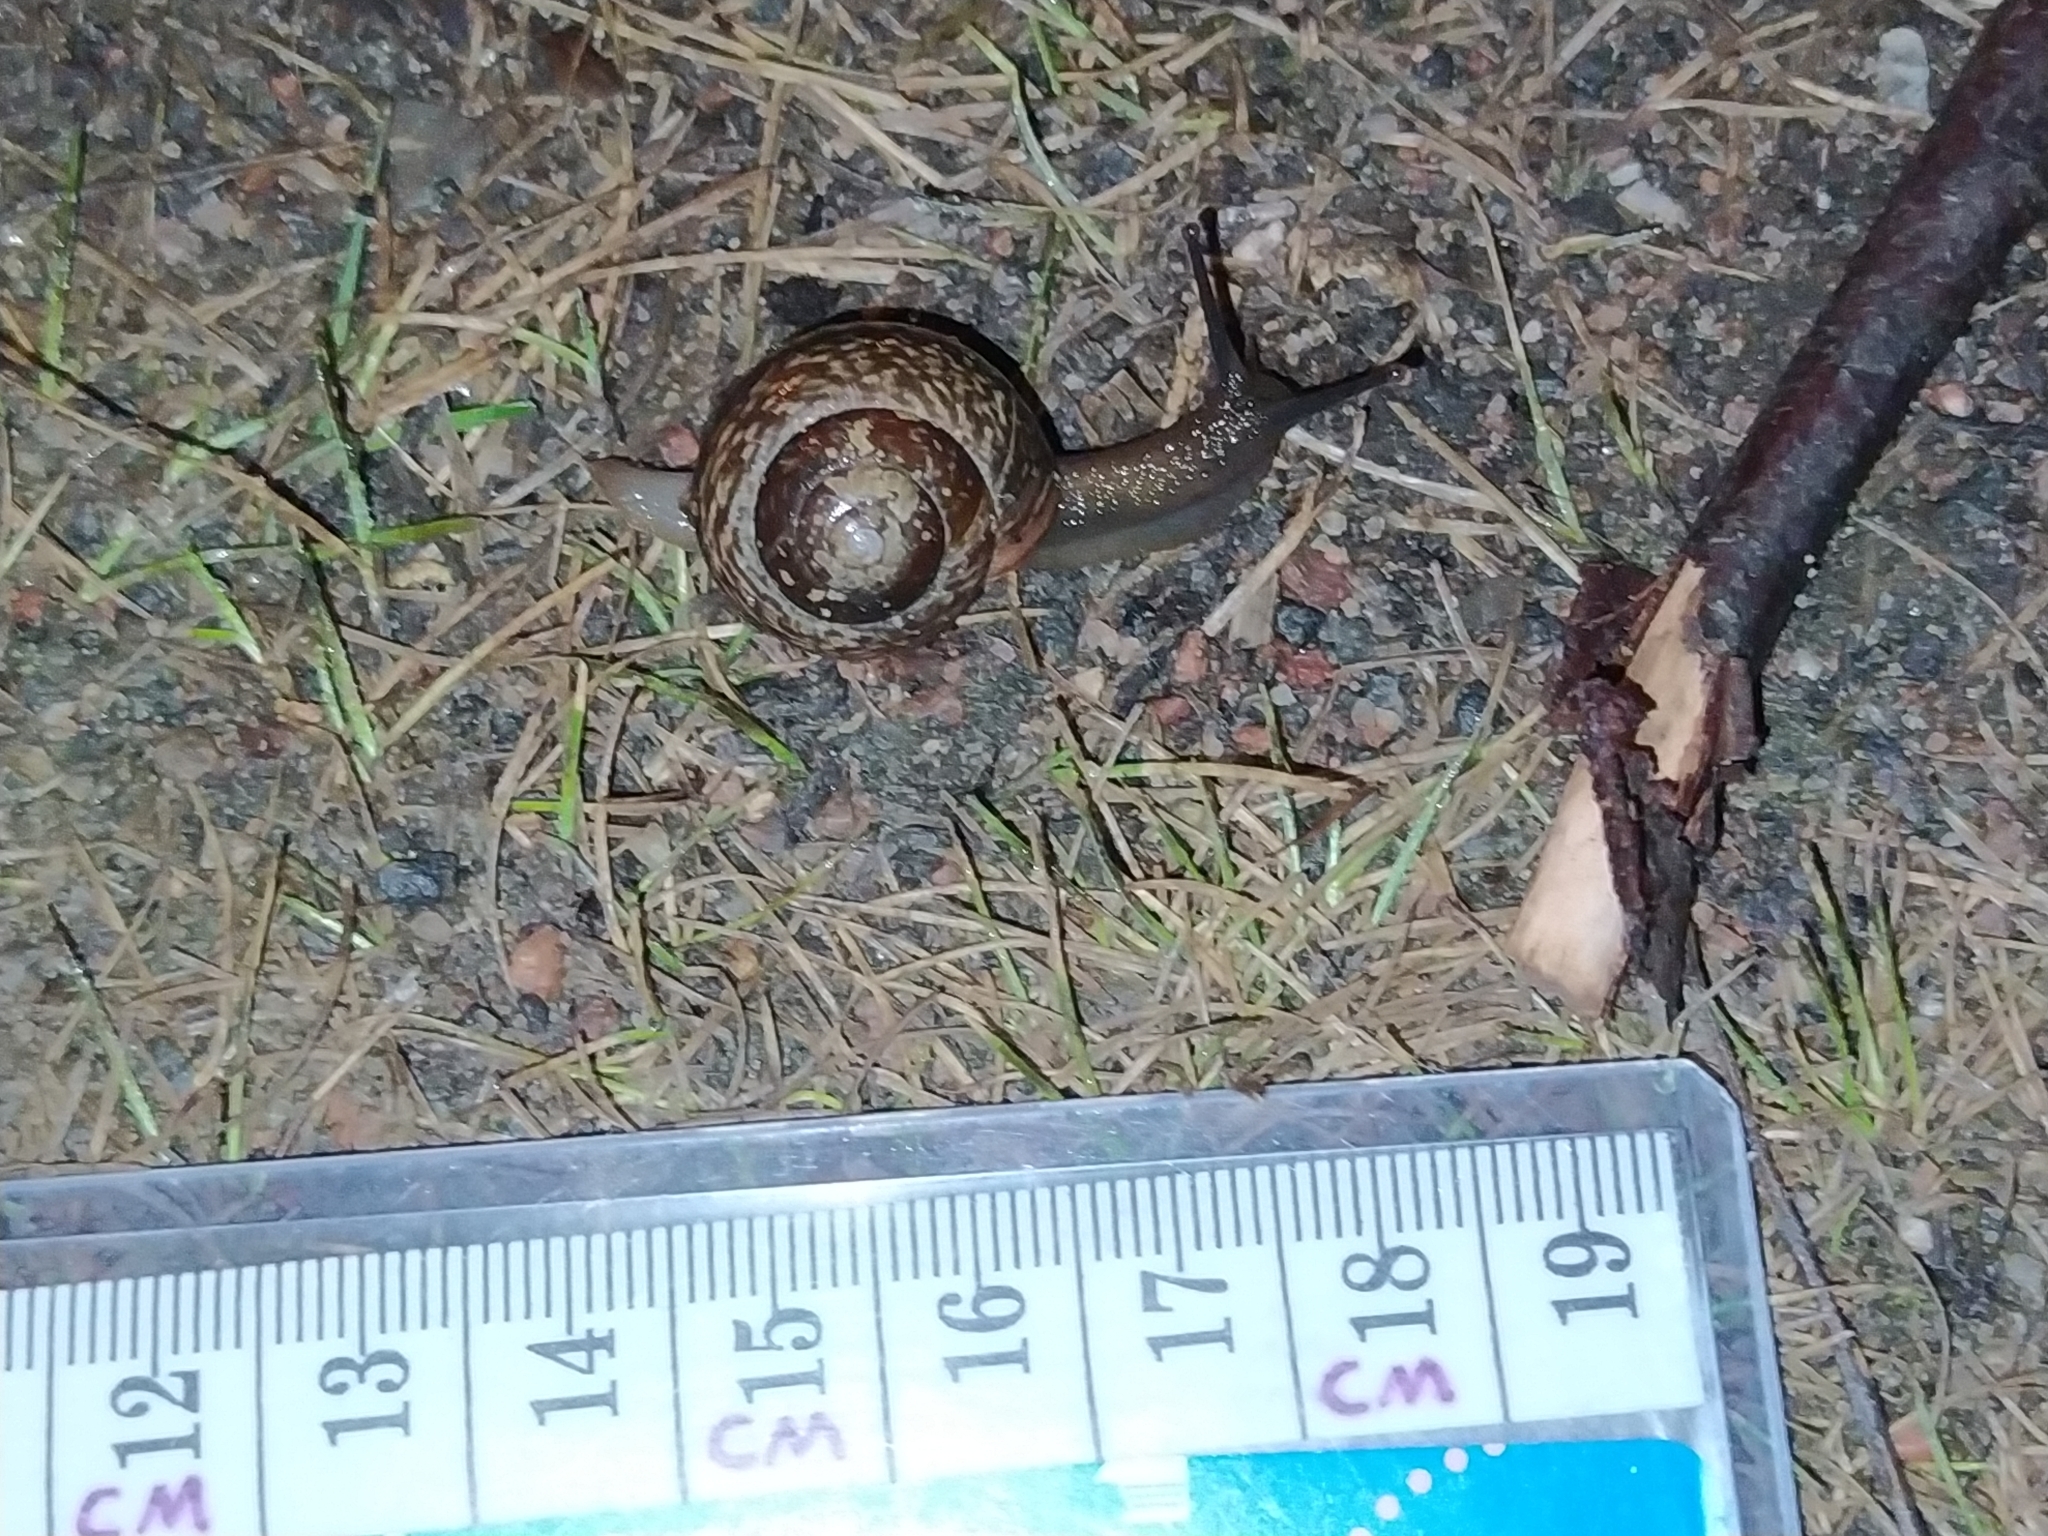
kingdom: Animalia
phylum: Mollusca
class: Gastropoda
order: Stylommatophora
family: Helicidae
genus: Arianta
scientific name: Arianta arbustorum
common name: Copse snail
